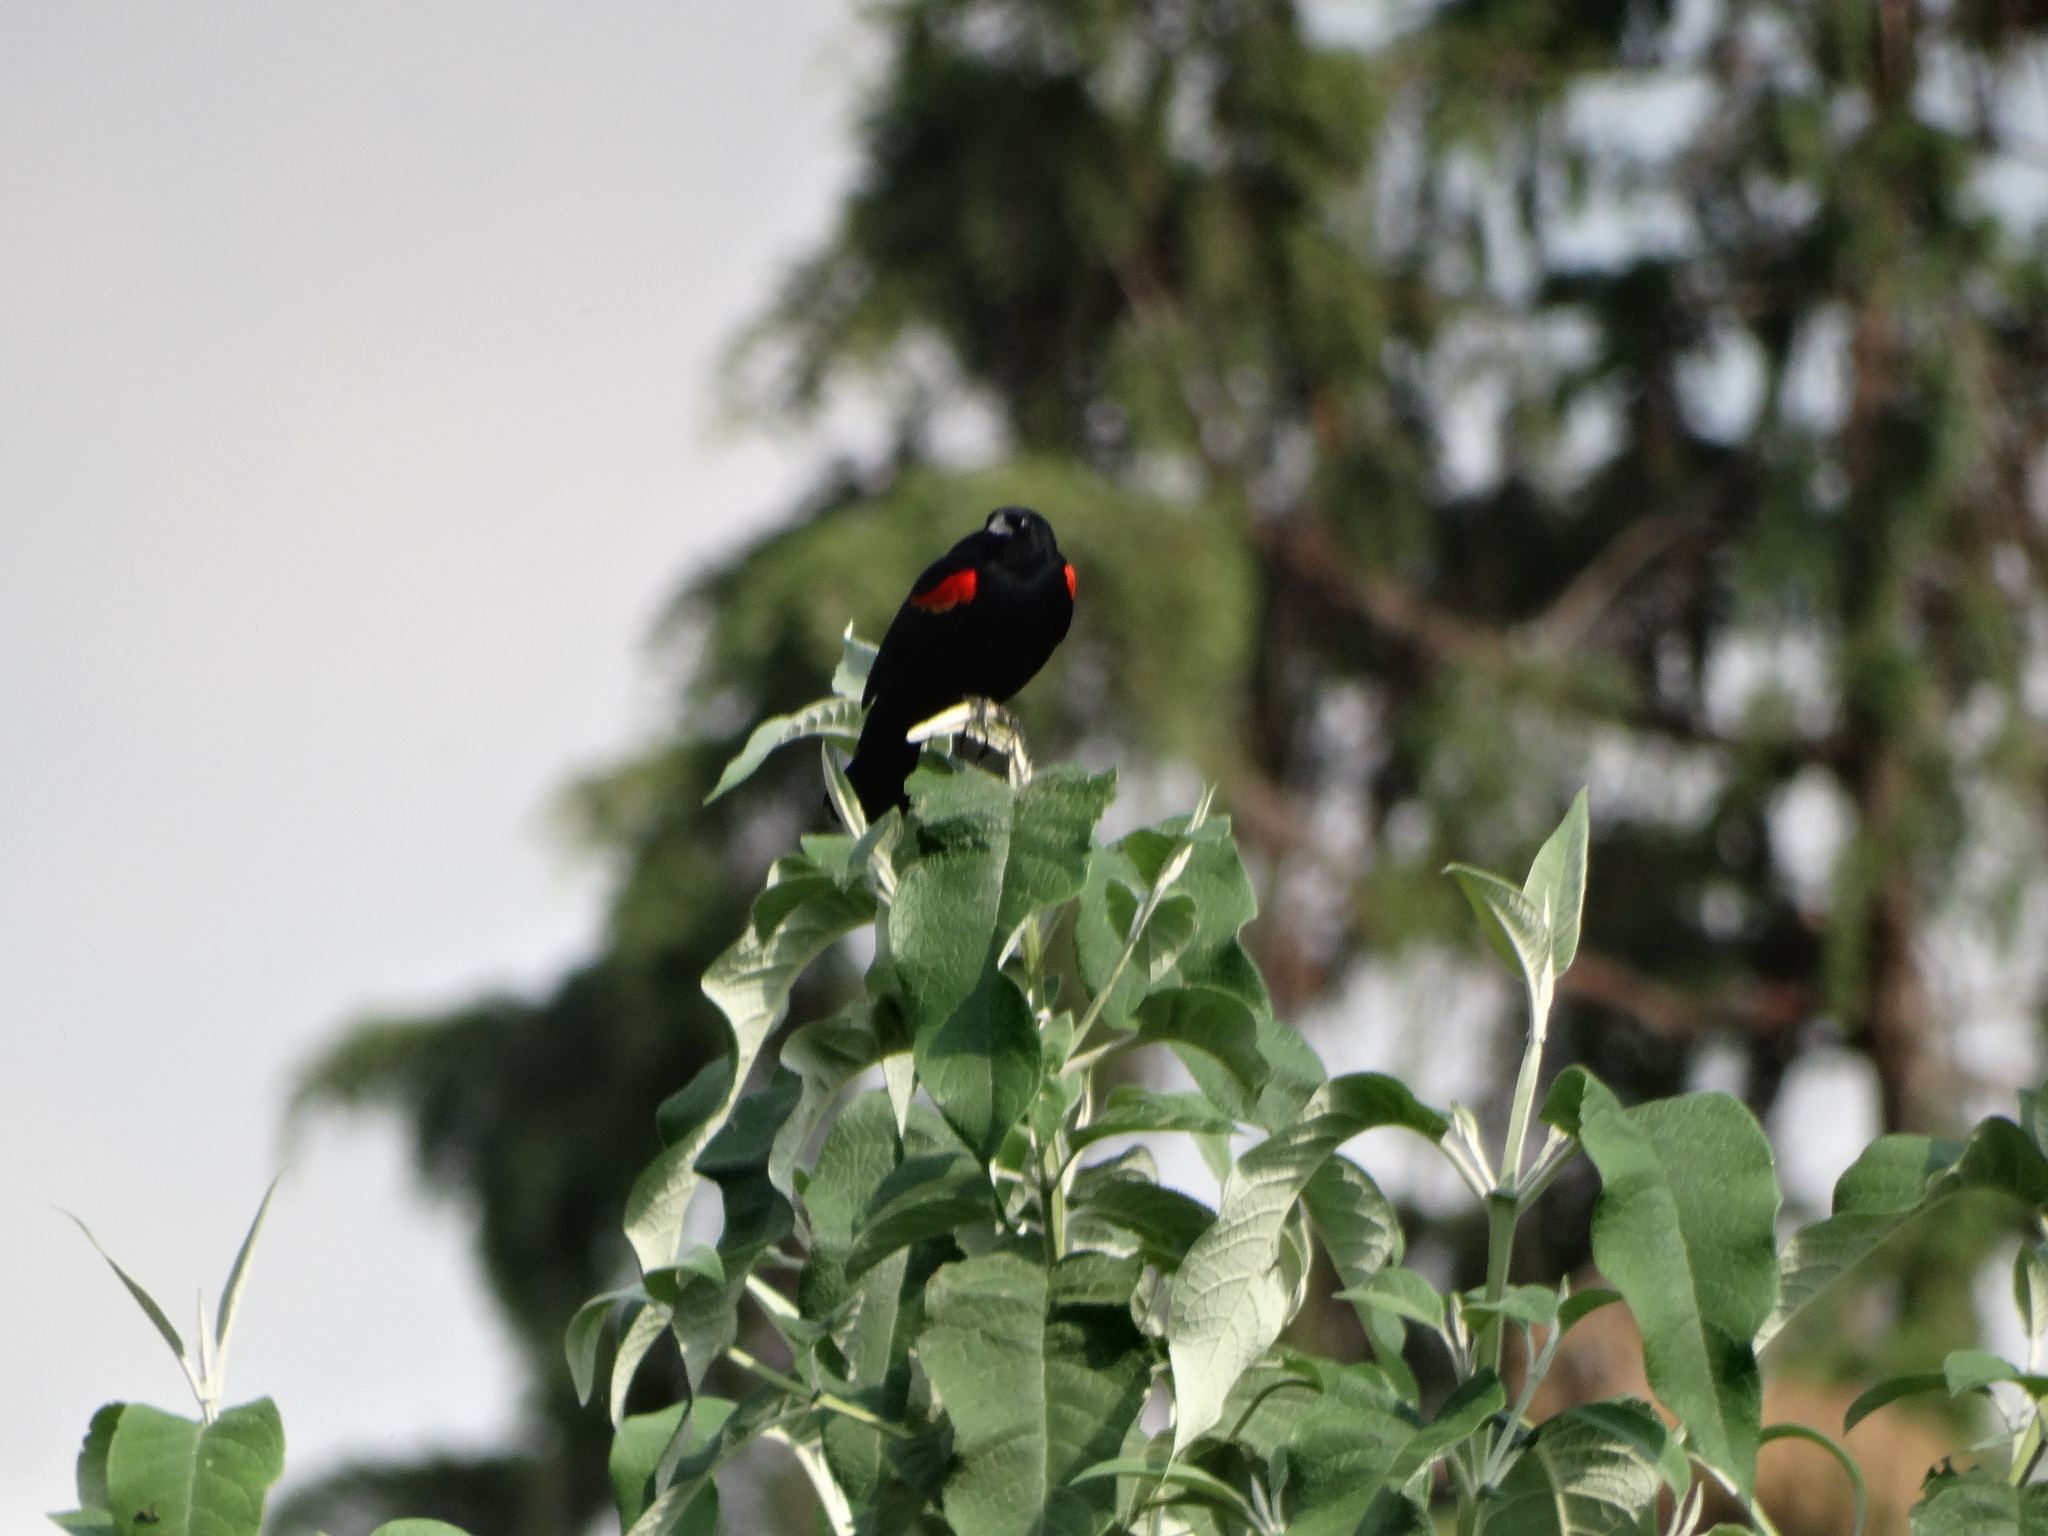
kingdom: Animalia
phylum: Chordata
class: Aves
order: Passeriformes
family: Icteridae
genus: Agelaius
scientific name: Agelaius phoeniceus
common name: Red-winged blackbird
